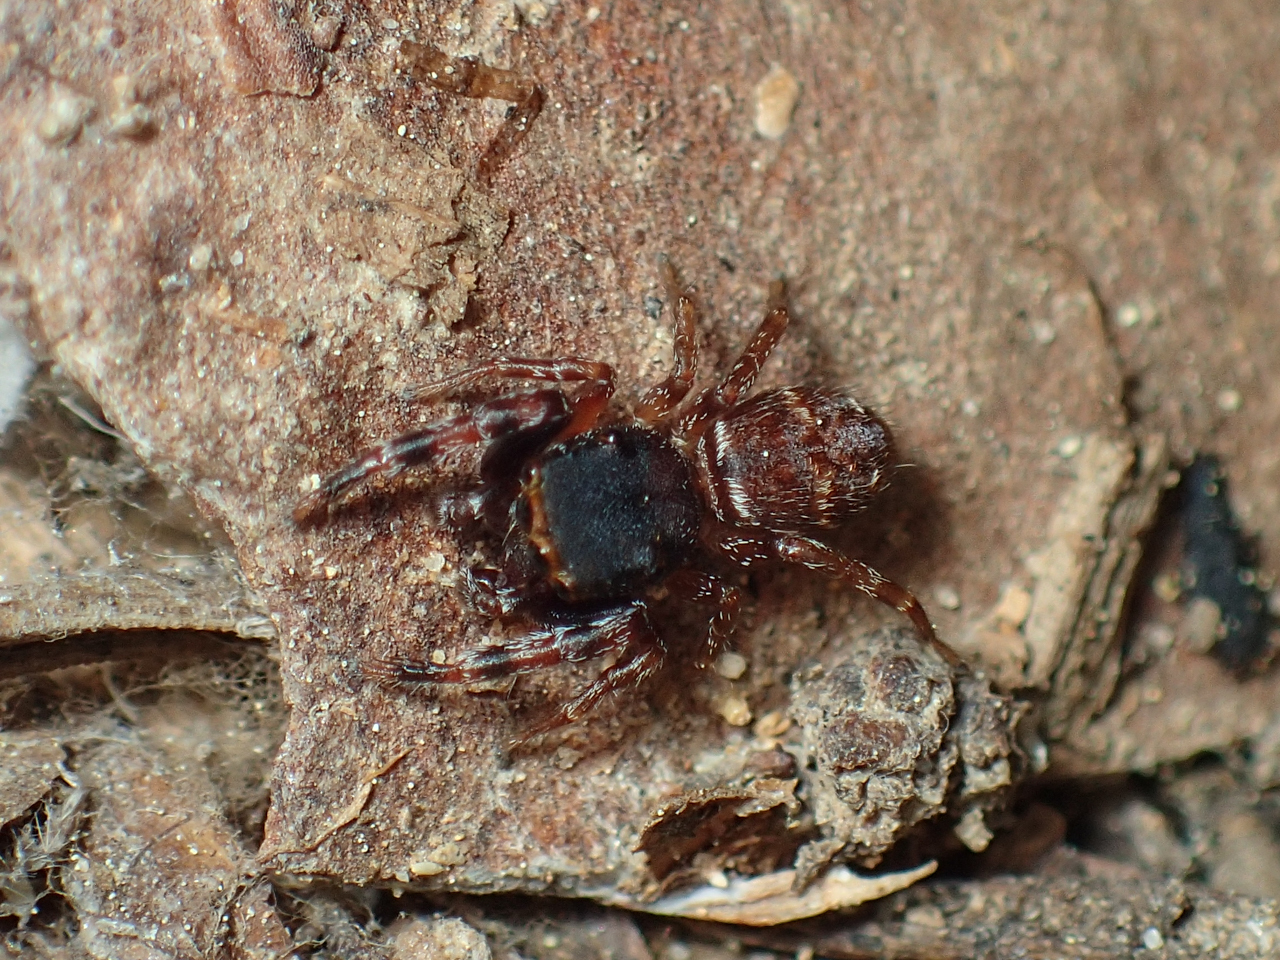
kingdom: Animalia
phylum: Arthropoda
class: Arachnida
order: Araneae
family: Salticidae
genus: Ghelna
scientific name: Ghelna sexmaculata
